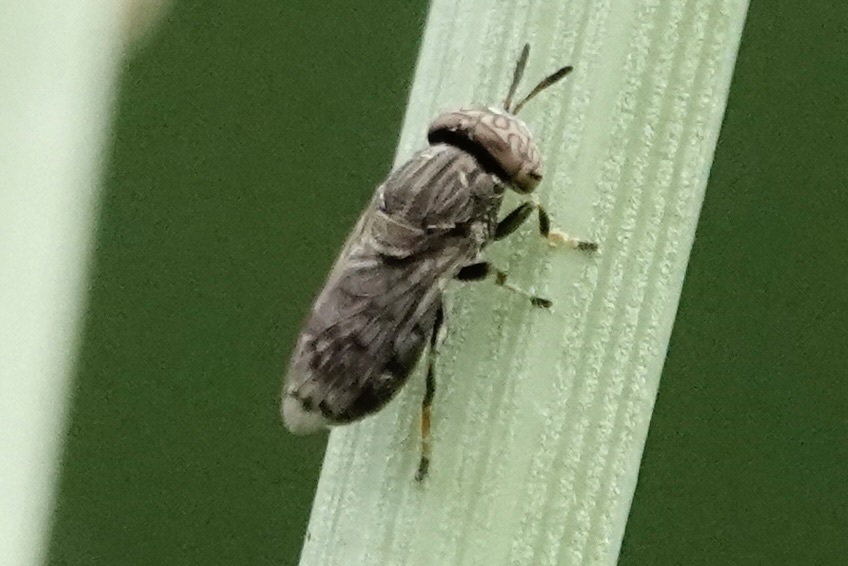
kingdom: Animalia
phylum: Arthropoda
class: Insecta
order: Diptera
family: Syrphidae
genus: Orthonevra
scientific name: Orthonevra nitida
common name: Wavy mucksucker
